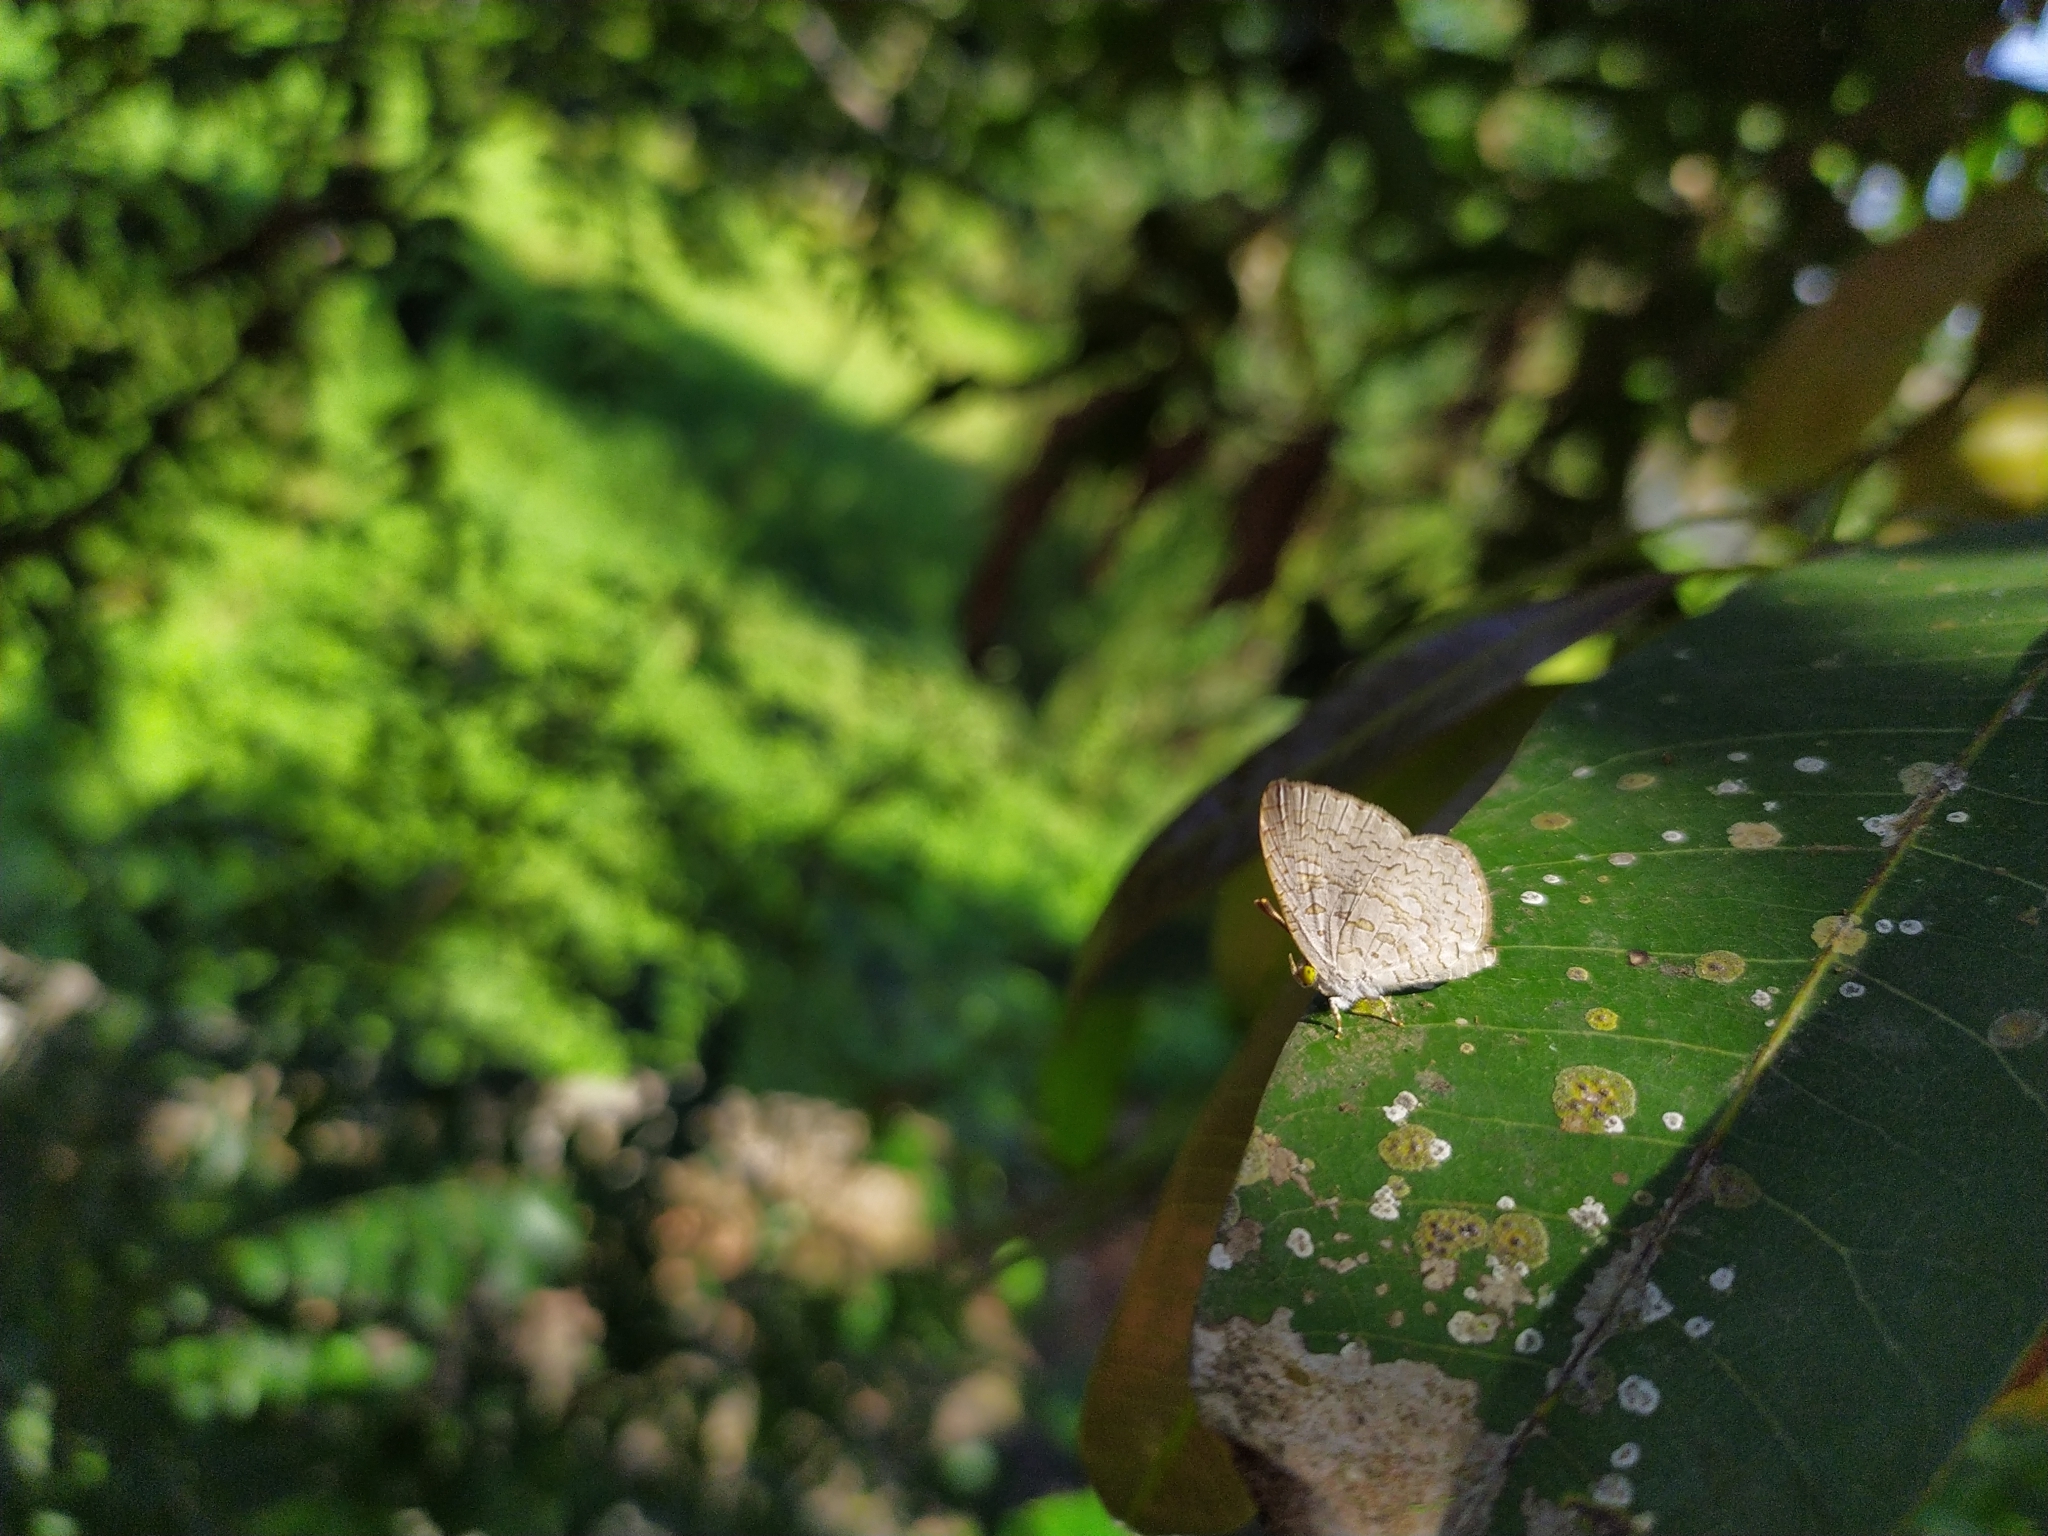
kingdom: Animalia
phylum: Arthropoda
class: Insecta
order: Lepidoptera
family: Lycaenidae
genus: Spalgis
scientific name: Spalgis epius
